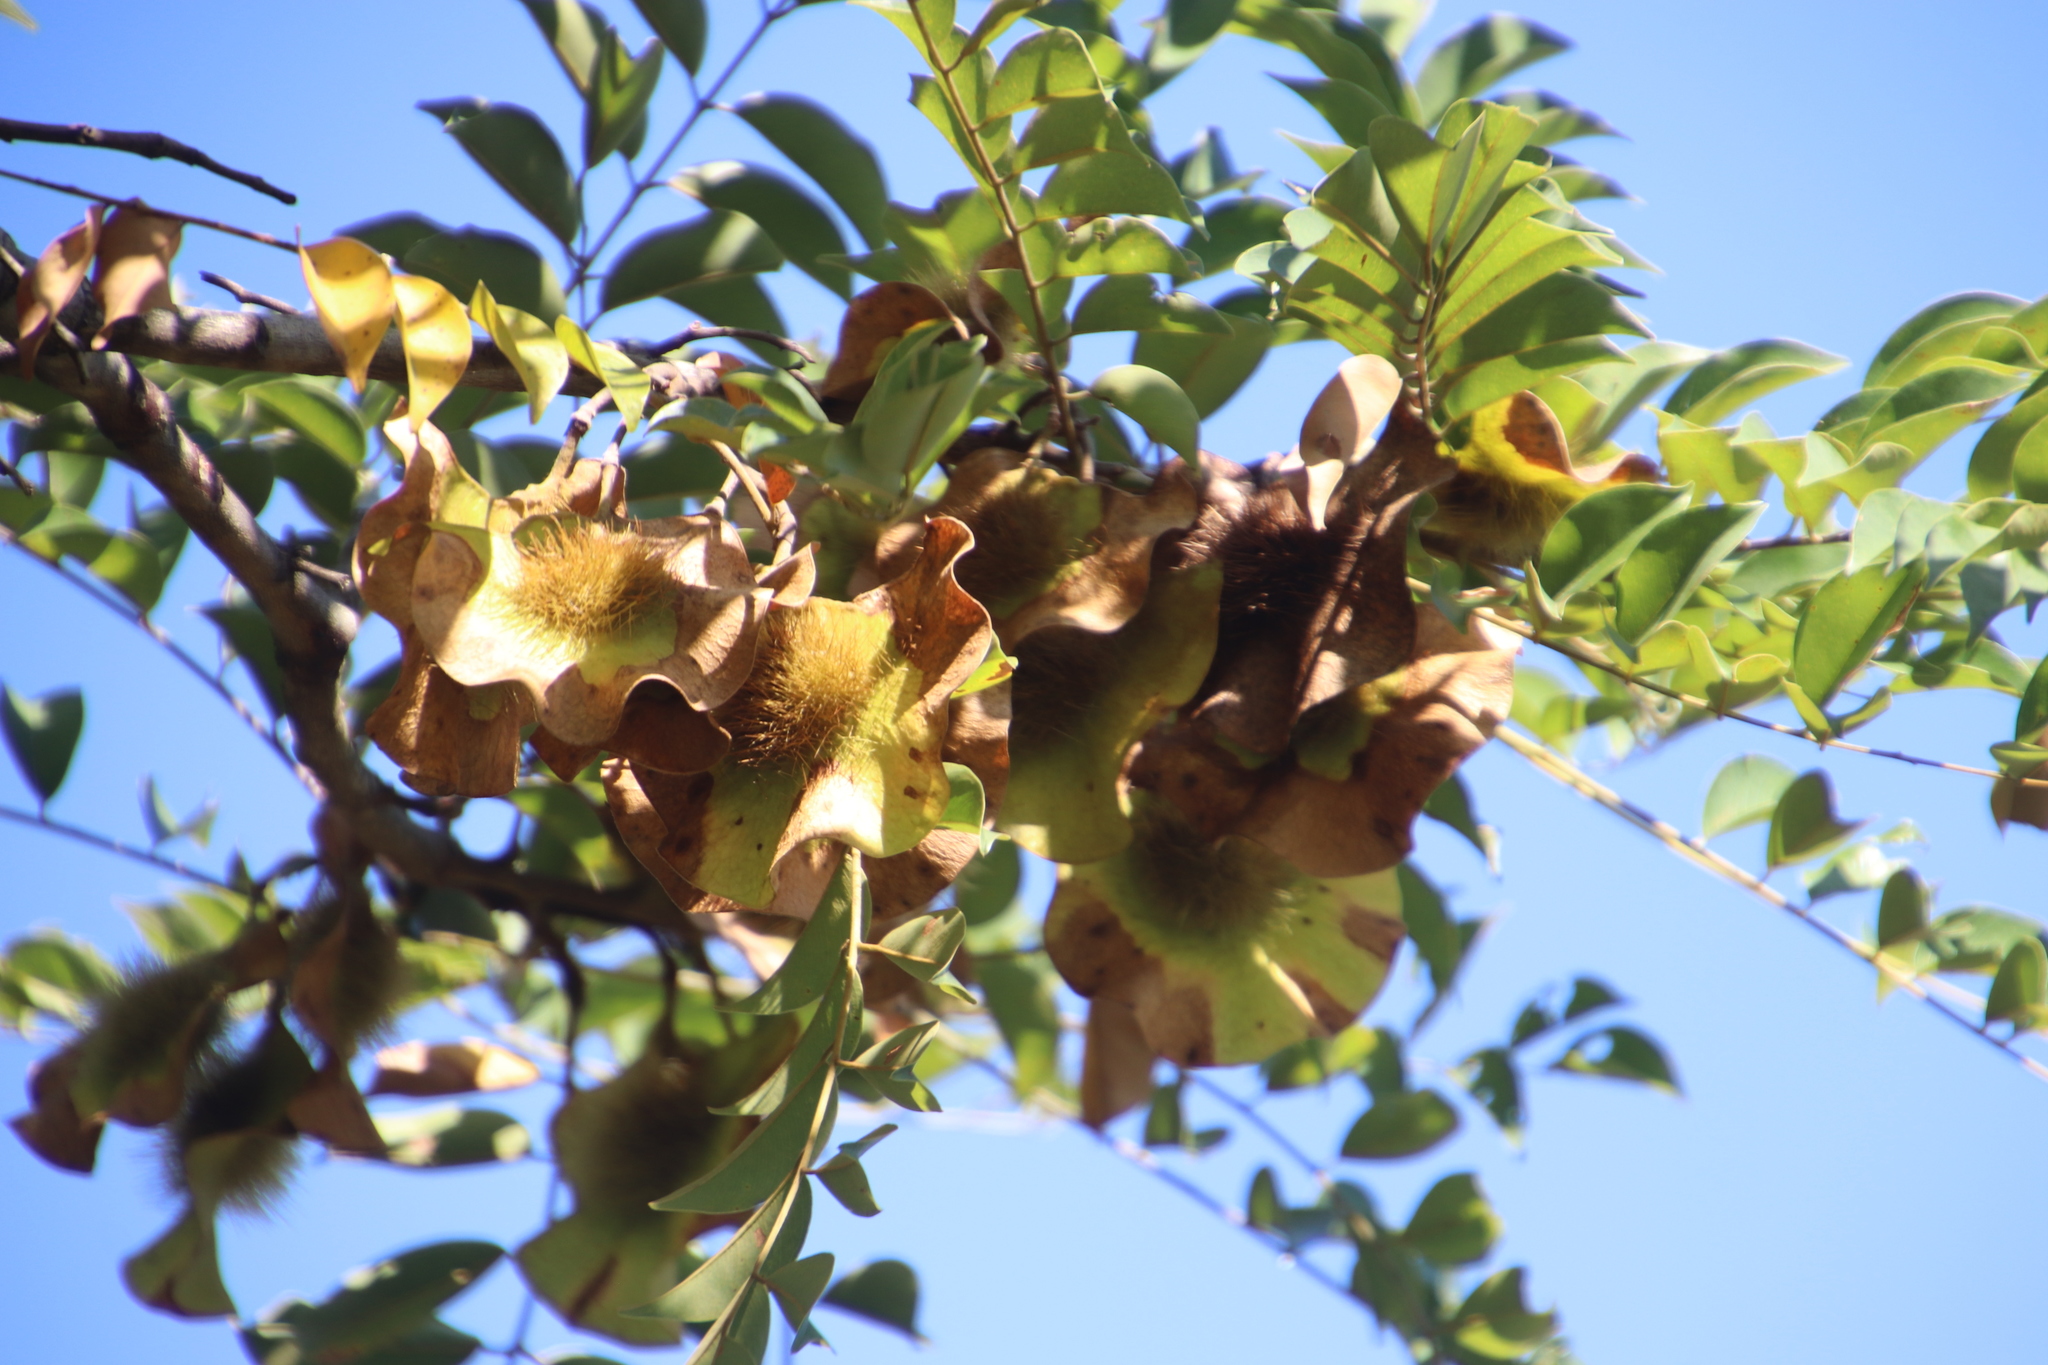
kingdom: Plantae
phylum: Tracheophyta
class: Magnoliopsida
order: Fabales
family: Fabaceae
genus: Pterocarpus
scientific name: Pterocarpus angolensis
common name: Bloodwood tree
